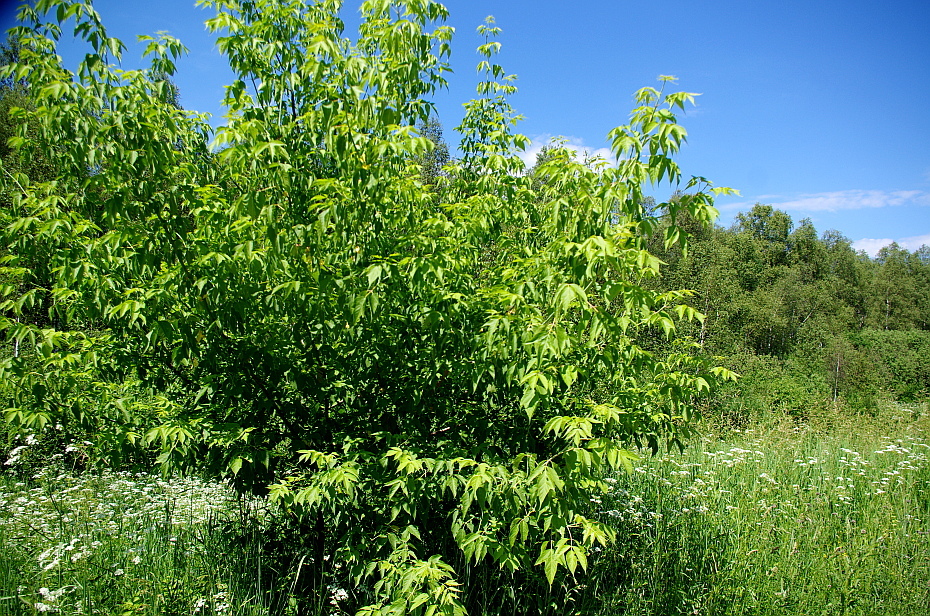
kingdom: Plantae
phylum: Tracheophyta
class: Magnoliopsida
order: Sapindales
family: Sapindaceae
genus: Acer
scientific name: Acer negundo
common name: Ashleaf maple
